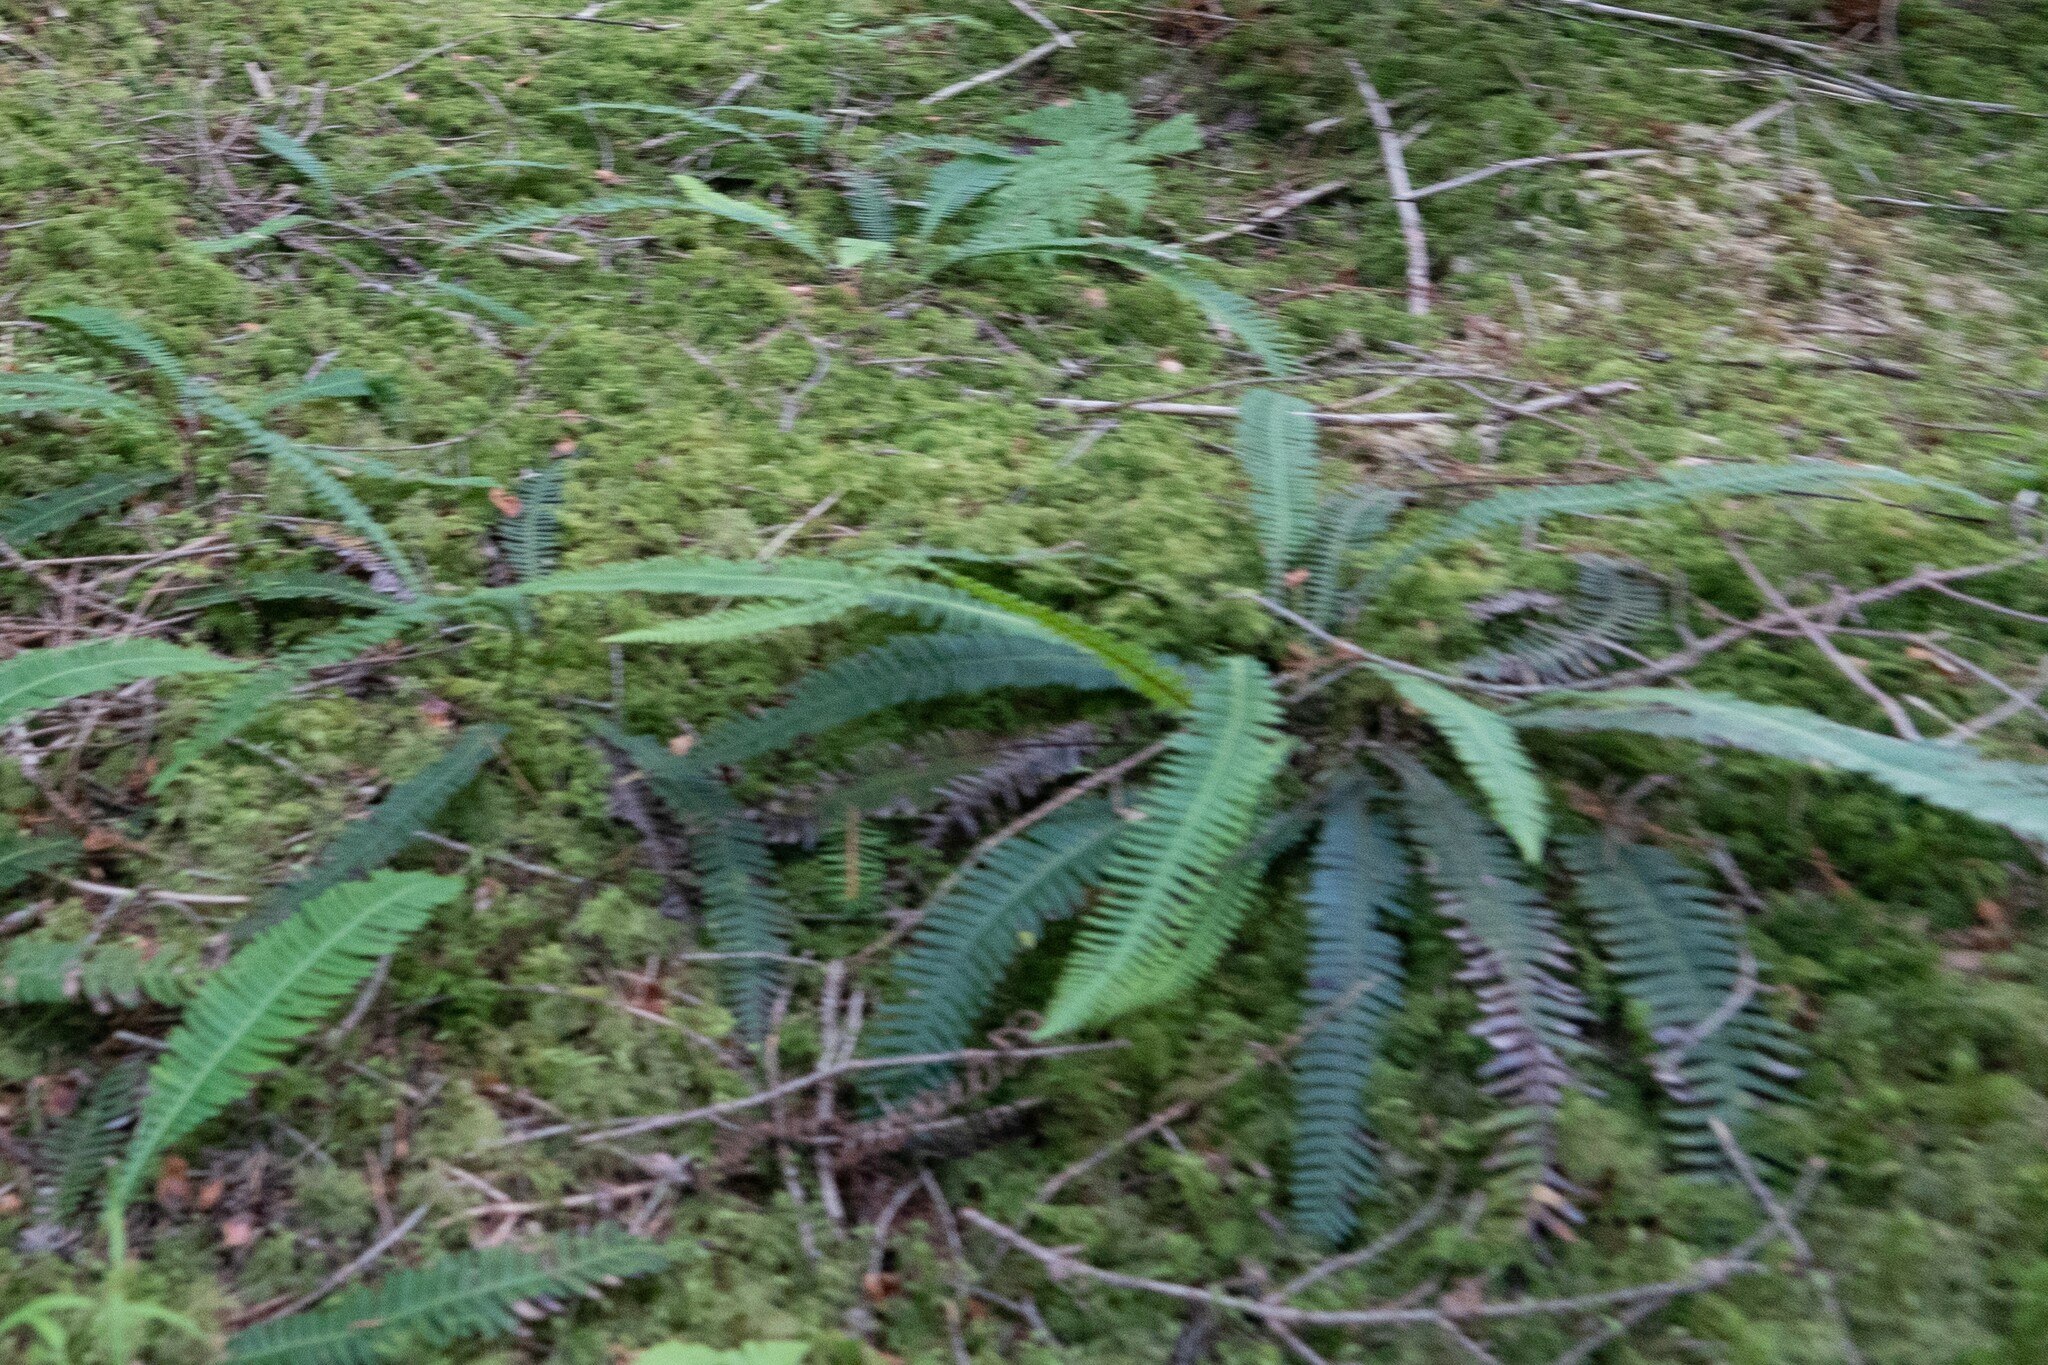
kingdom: Plantae
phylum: Tracheophyta
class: Polypodiopsida
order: Polypodiales
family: Blechnaceae
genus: Struthiopteris
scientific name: Struthiopteris spicant
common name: Deer fern
